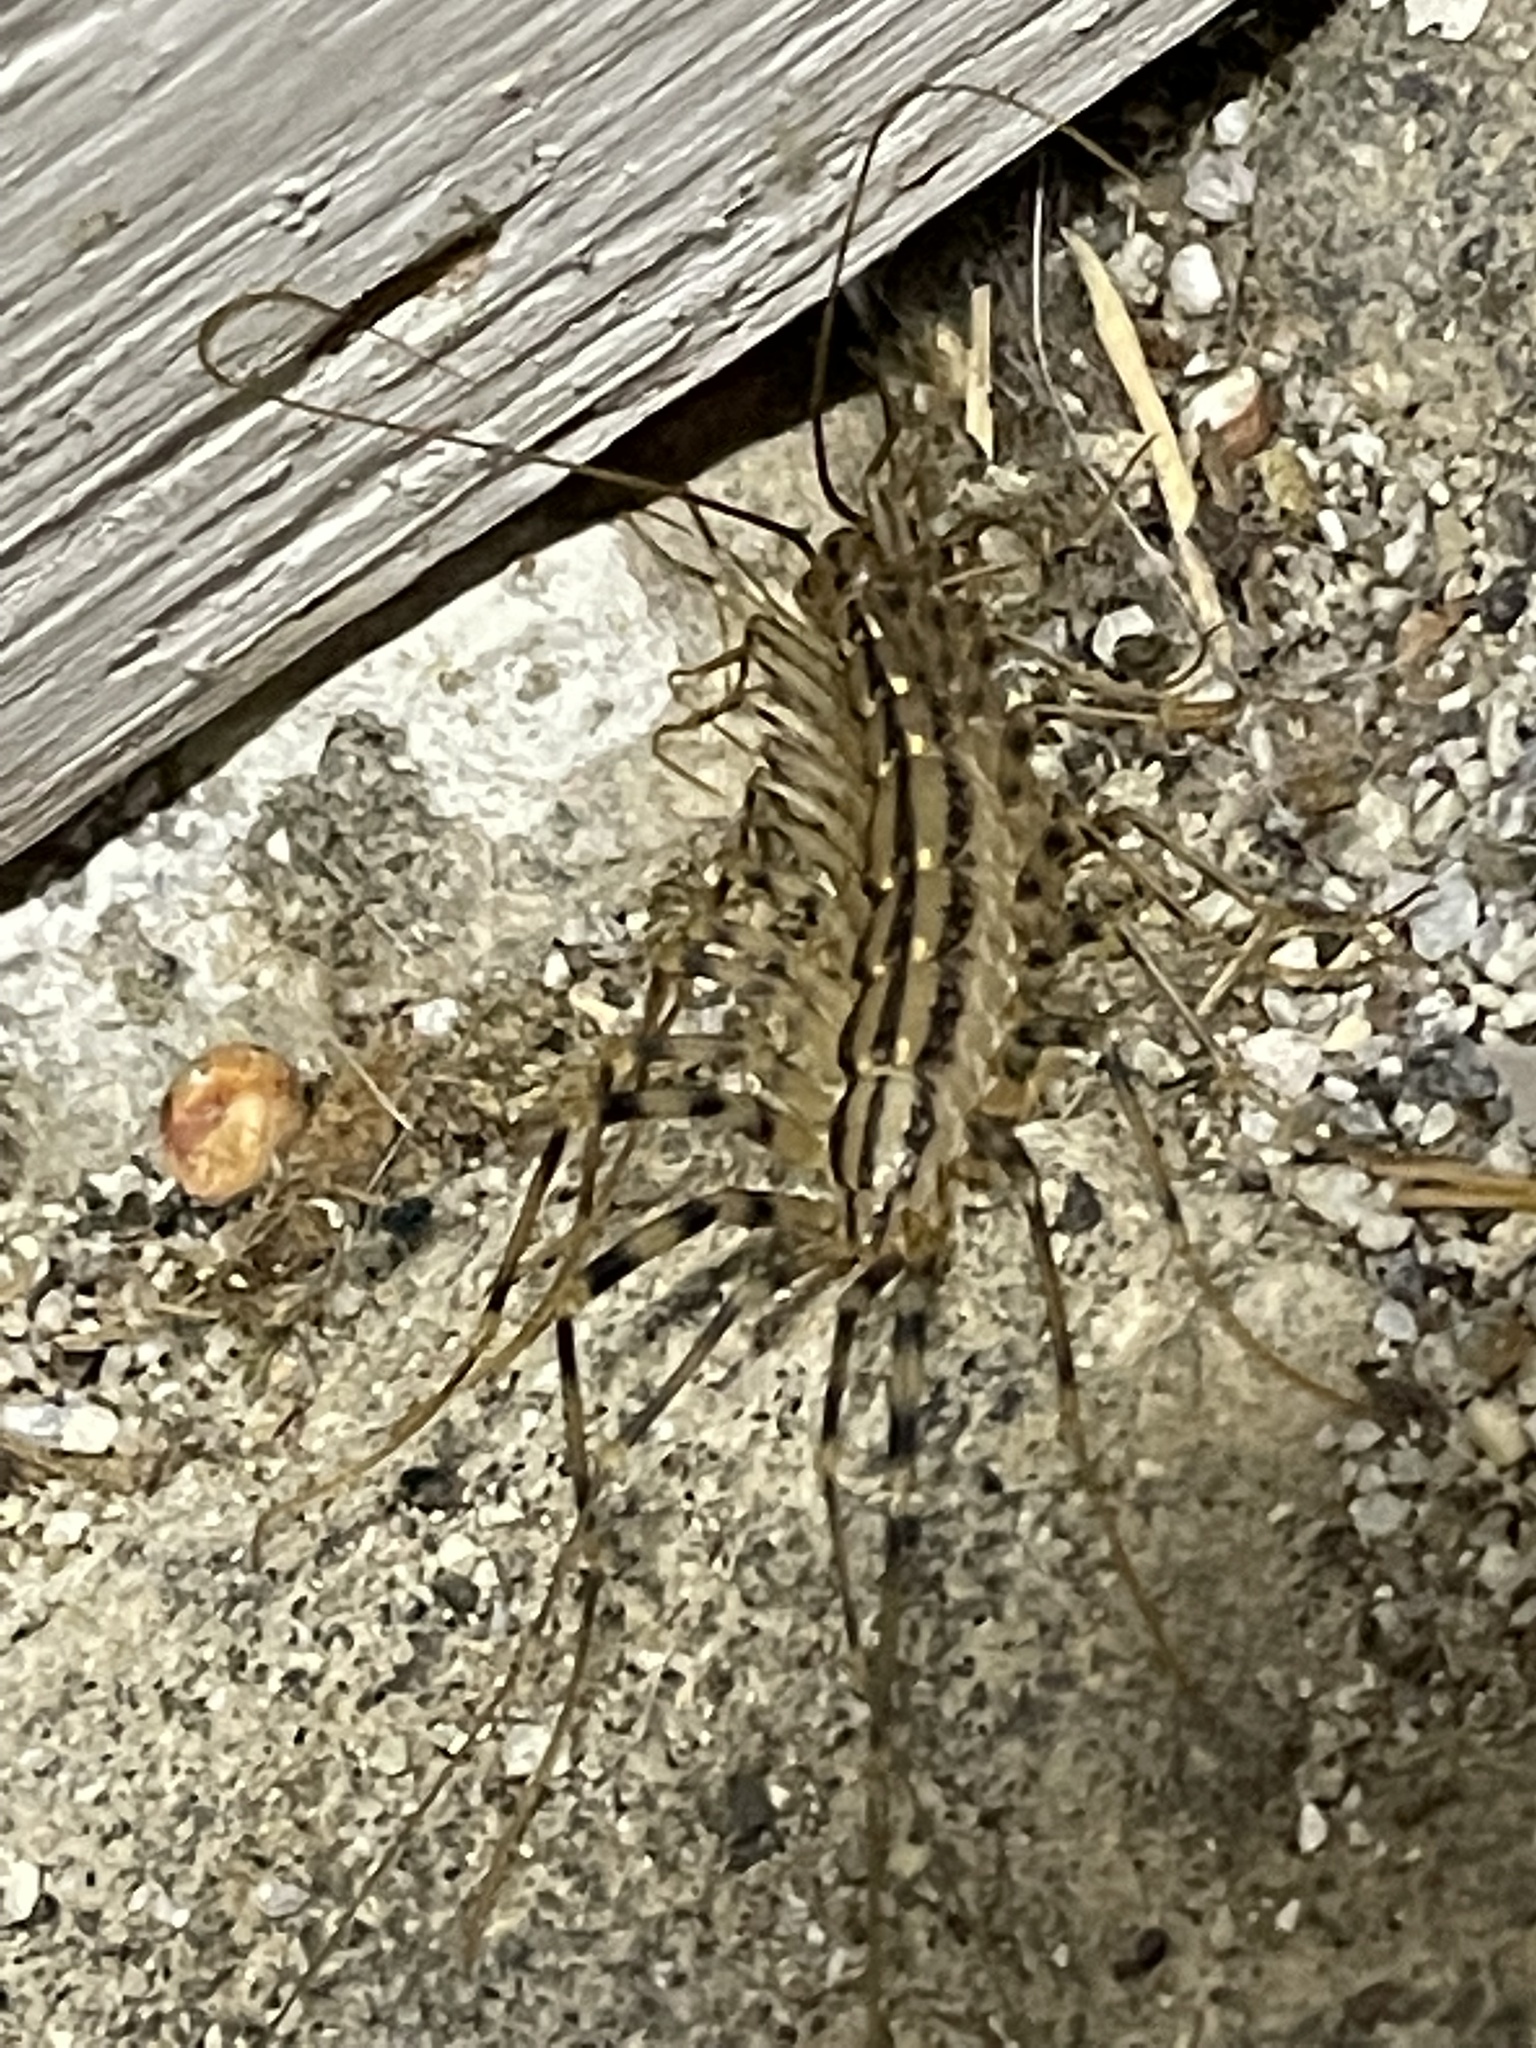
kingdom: Animalia
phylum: Arthropoda
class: Chilopoda
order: Scutigeromorpha
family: Scutigeridae
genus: Scutigera
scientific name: Scutigera coleoptrata
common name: House centipede
